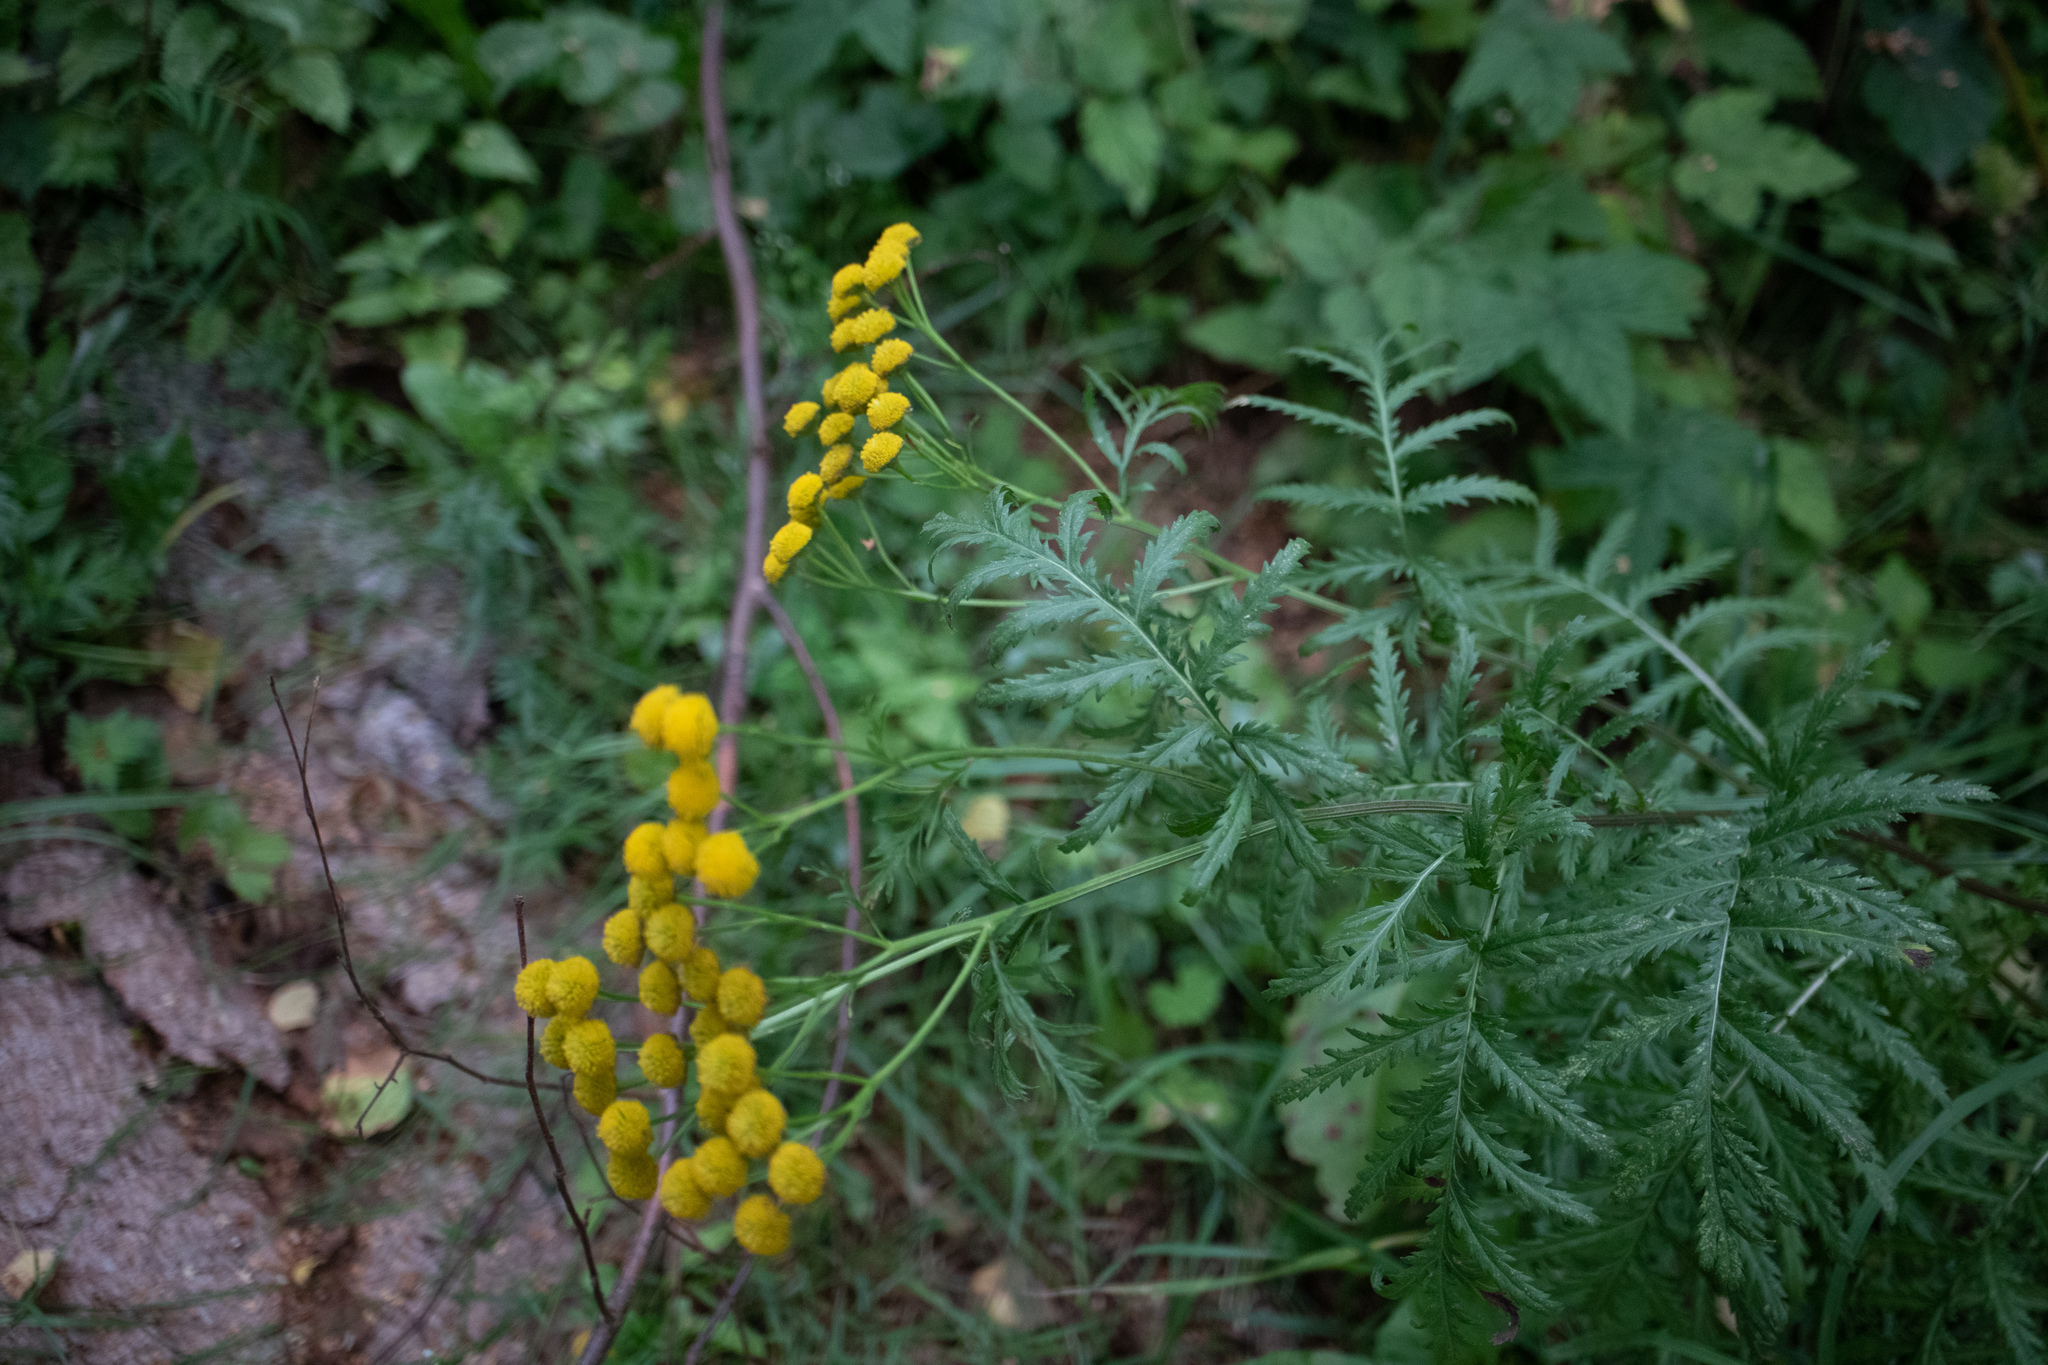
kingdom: Plantae
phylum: Tracheophyta
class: Magnoliopsida
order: Asterales
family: Asteraceae
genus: Tanacetum
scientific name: Tanacetum vulgare
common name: Common tansy
